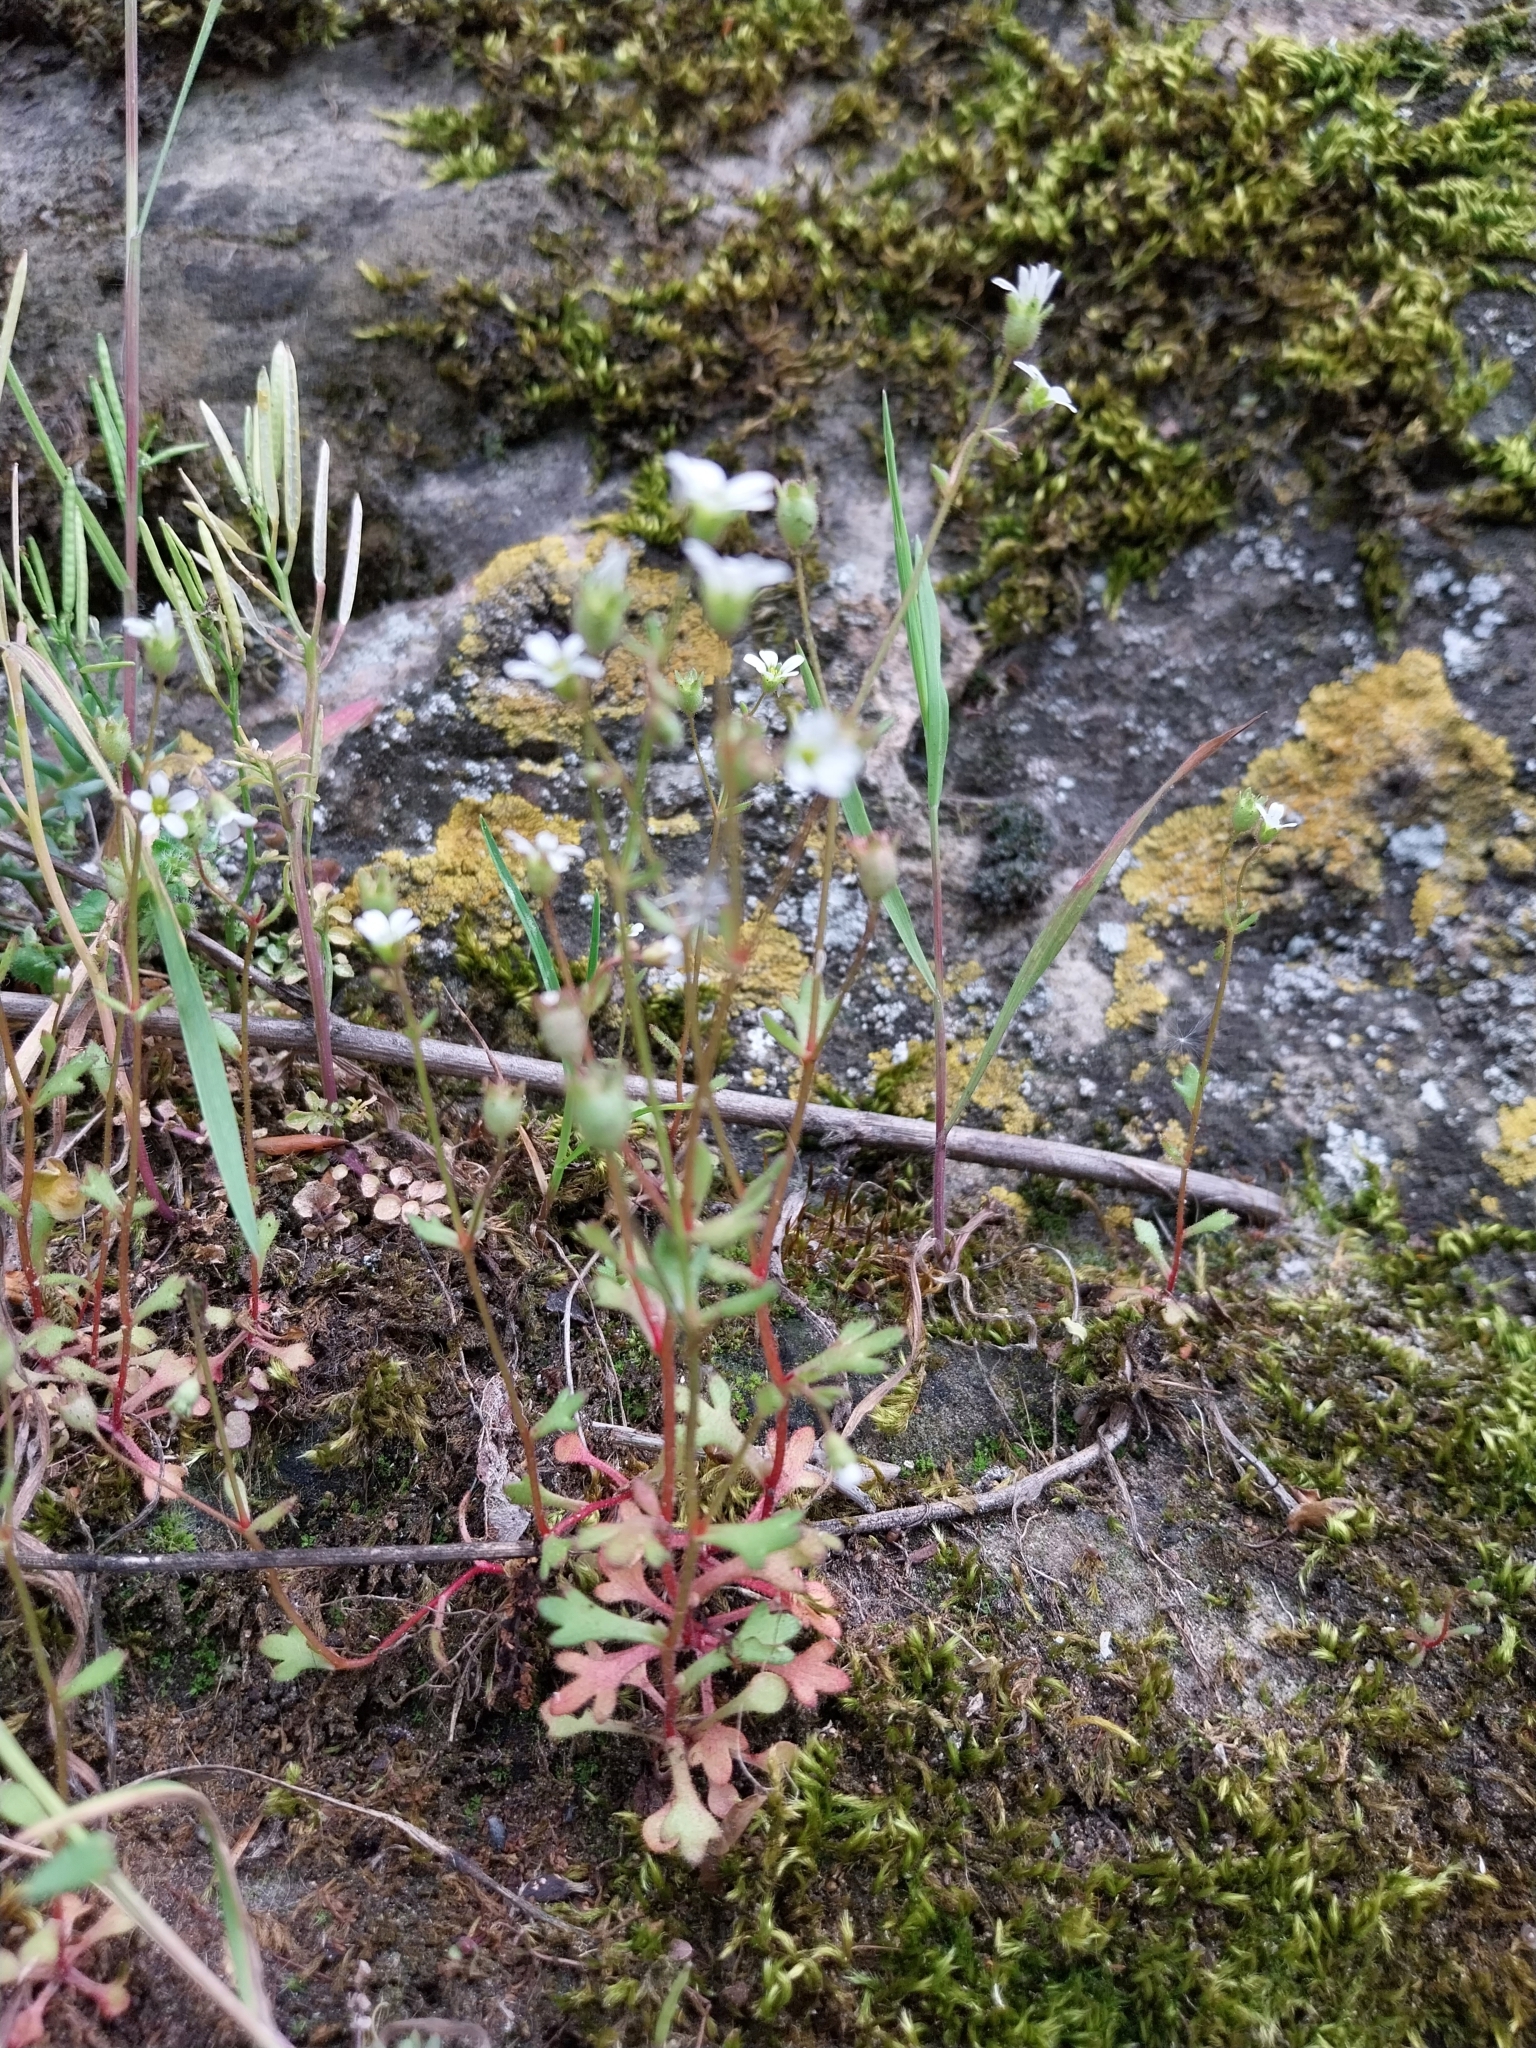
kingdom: Plantae
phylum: Tracheophyta
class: Magnoliopsida
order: Saxifragales
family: Saxifragaceae
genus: Saxifraga
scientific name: Saxifraga tridactylites
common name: Rue-leaved saxifrage
